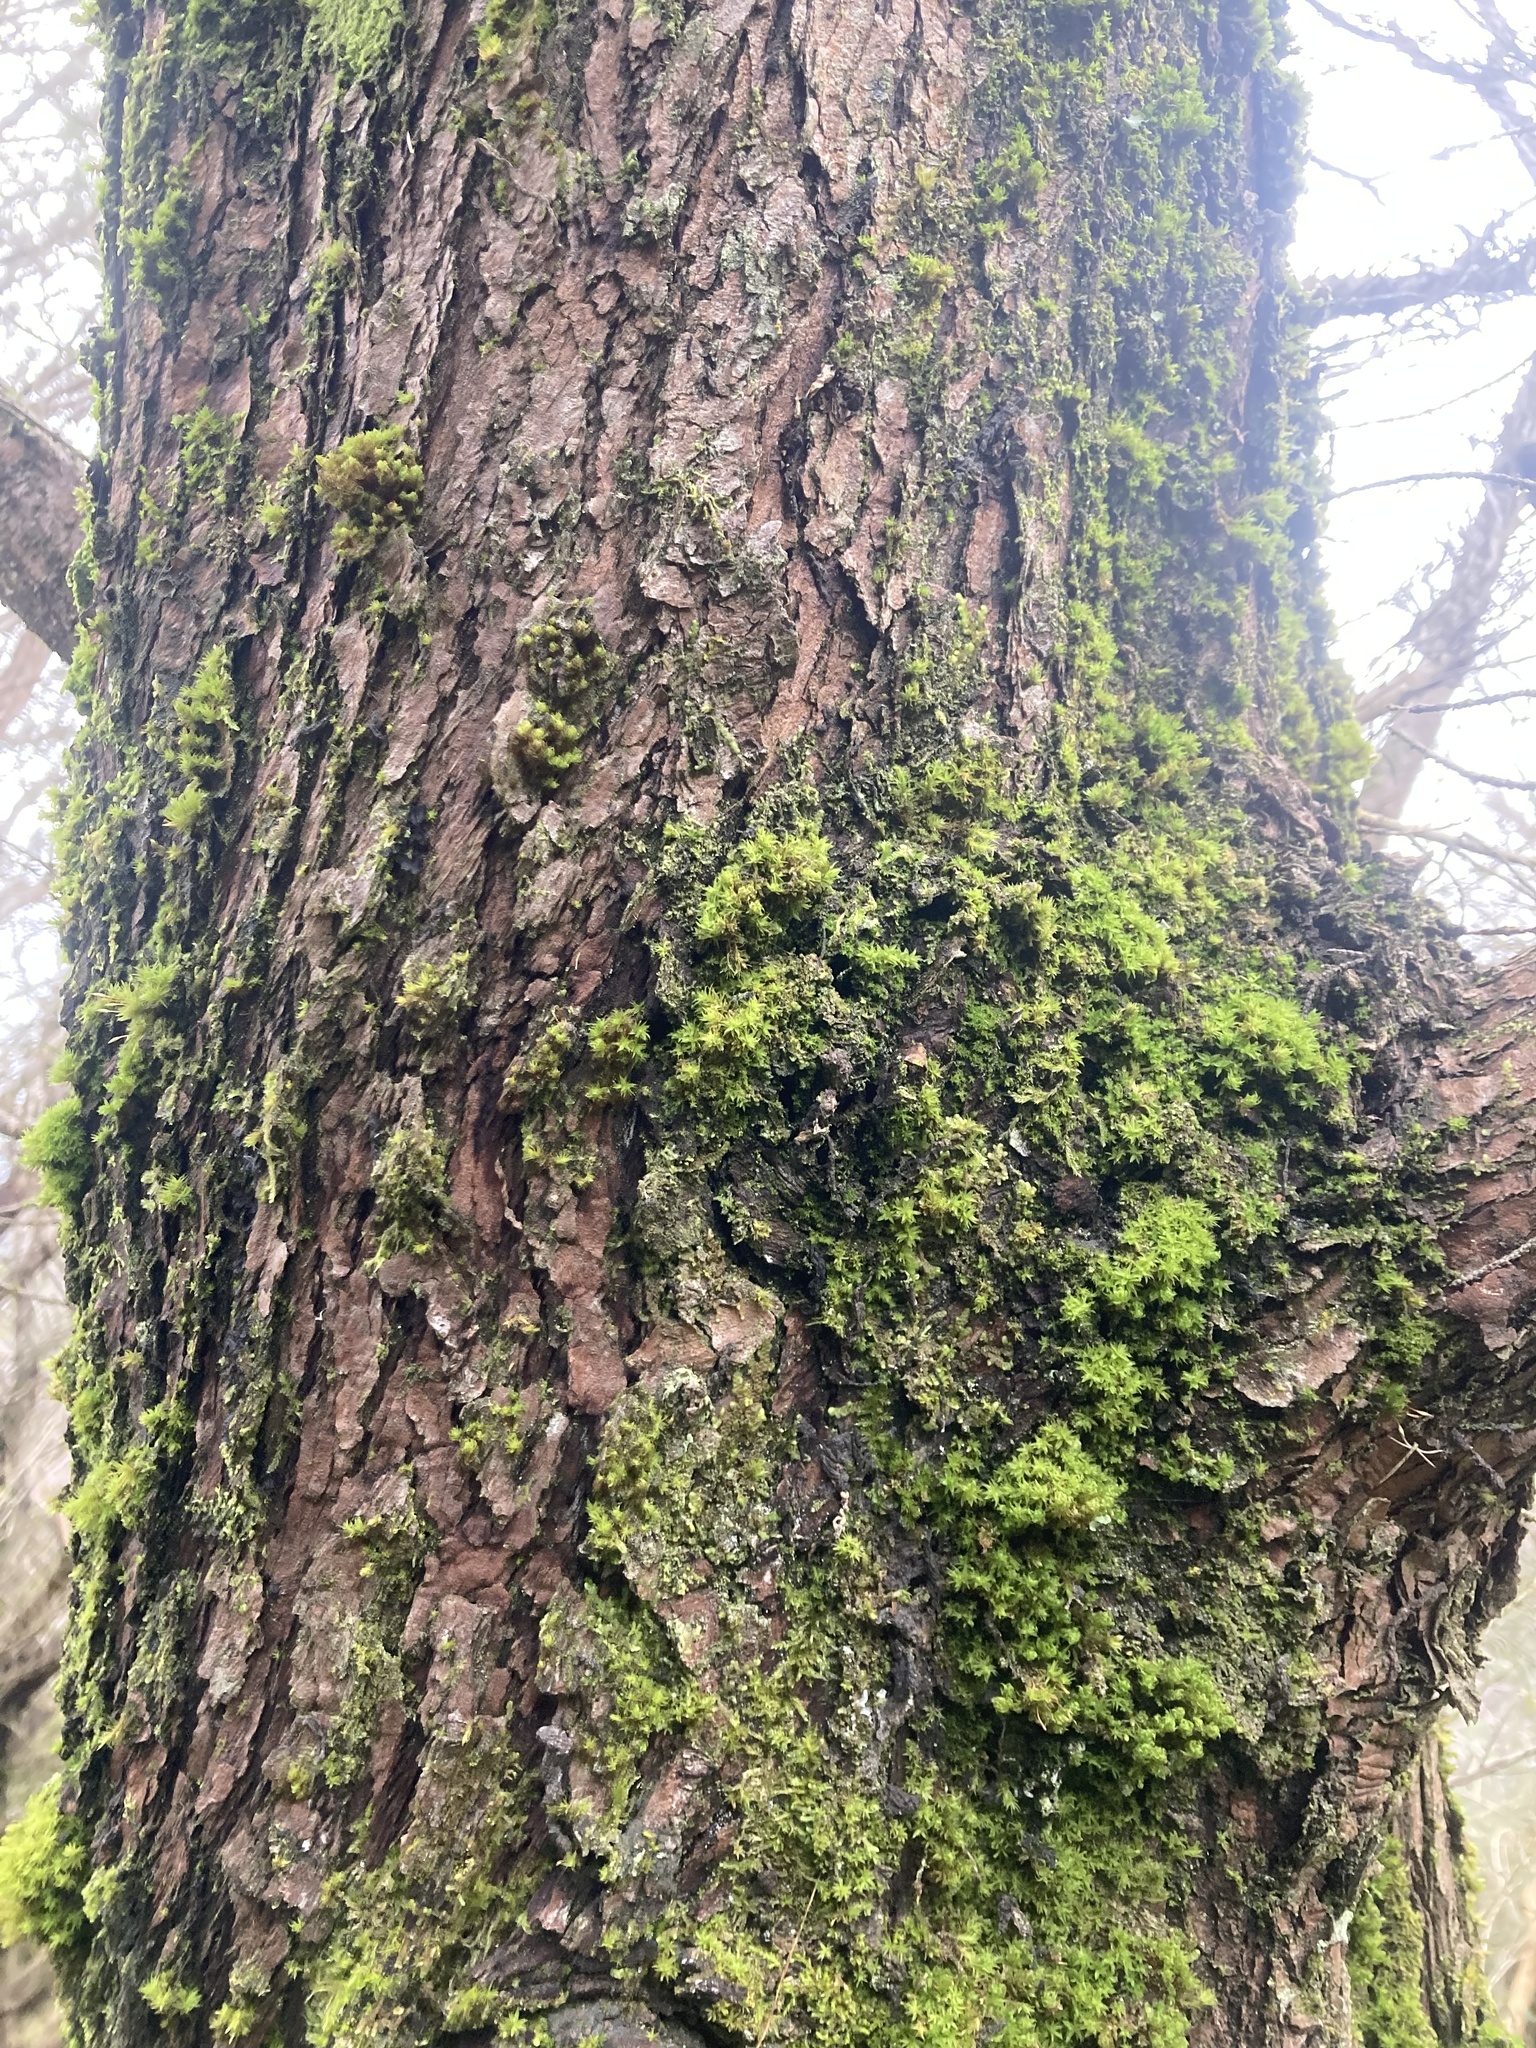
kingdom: Plantae
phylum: Tracheophyta
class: Pinopsida
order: Pinales
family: Cupressaceae
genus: Cupressus
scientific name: Cupressus macrocarpa
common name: Monterey cypress
